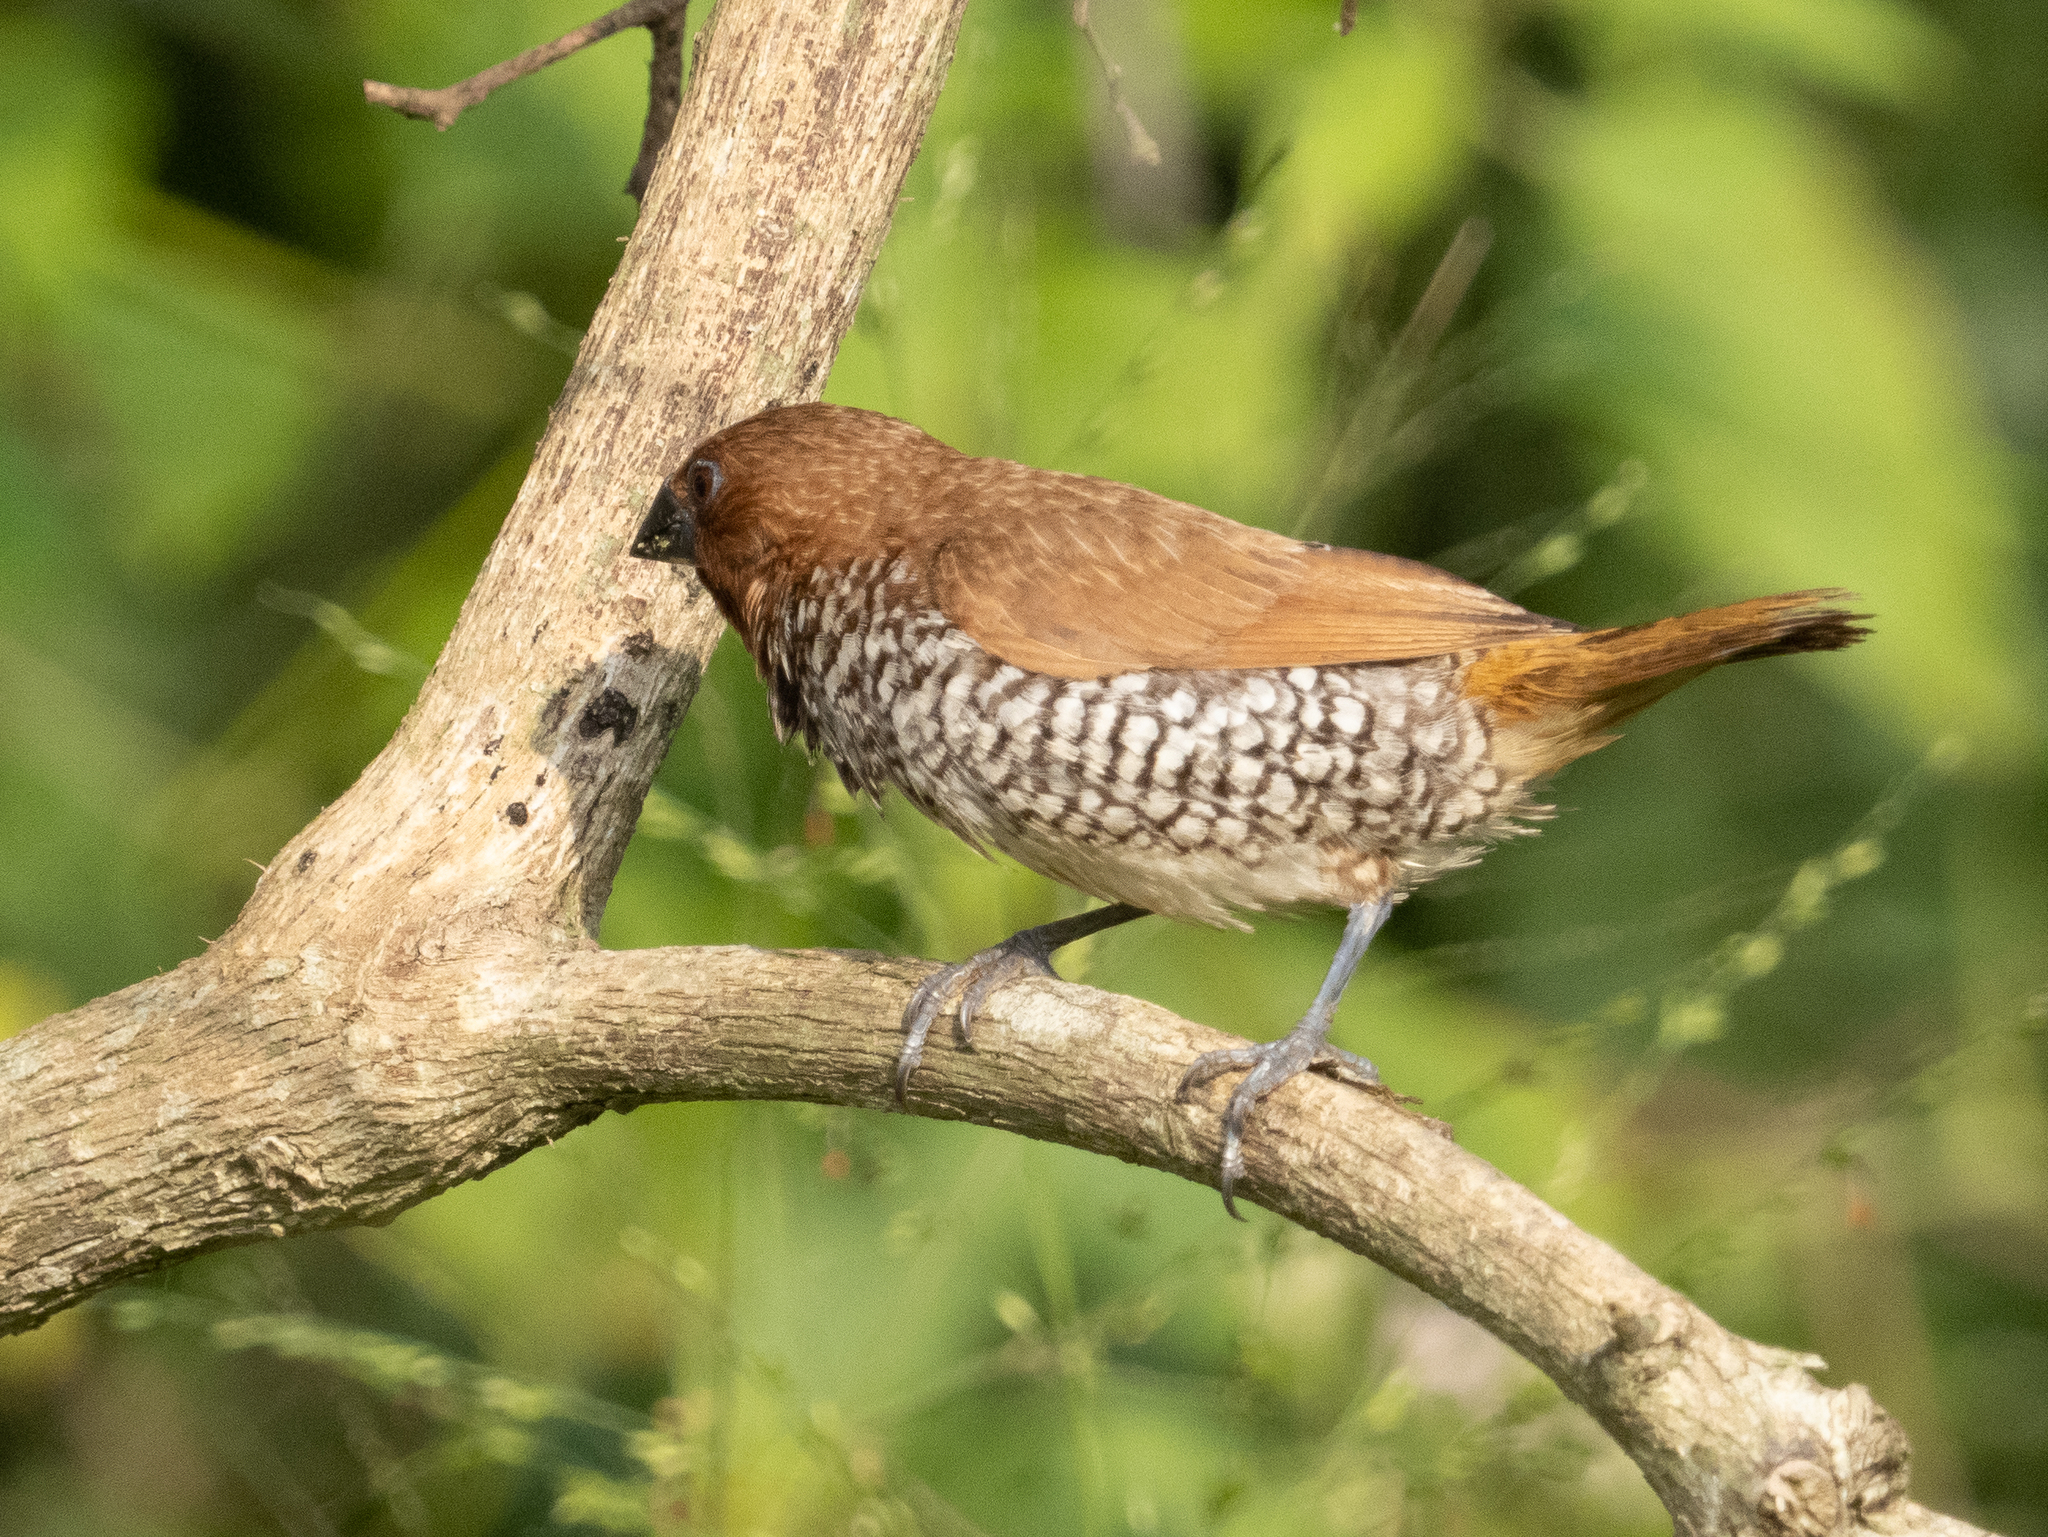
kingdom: Animalia
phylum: Chordata
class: Aves
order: Passeriformes
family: Estrildidae
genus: Lonchura
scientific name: Lonchura punctulata
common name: Scaly-breasted munia
